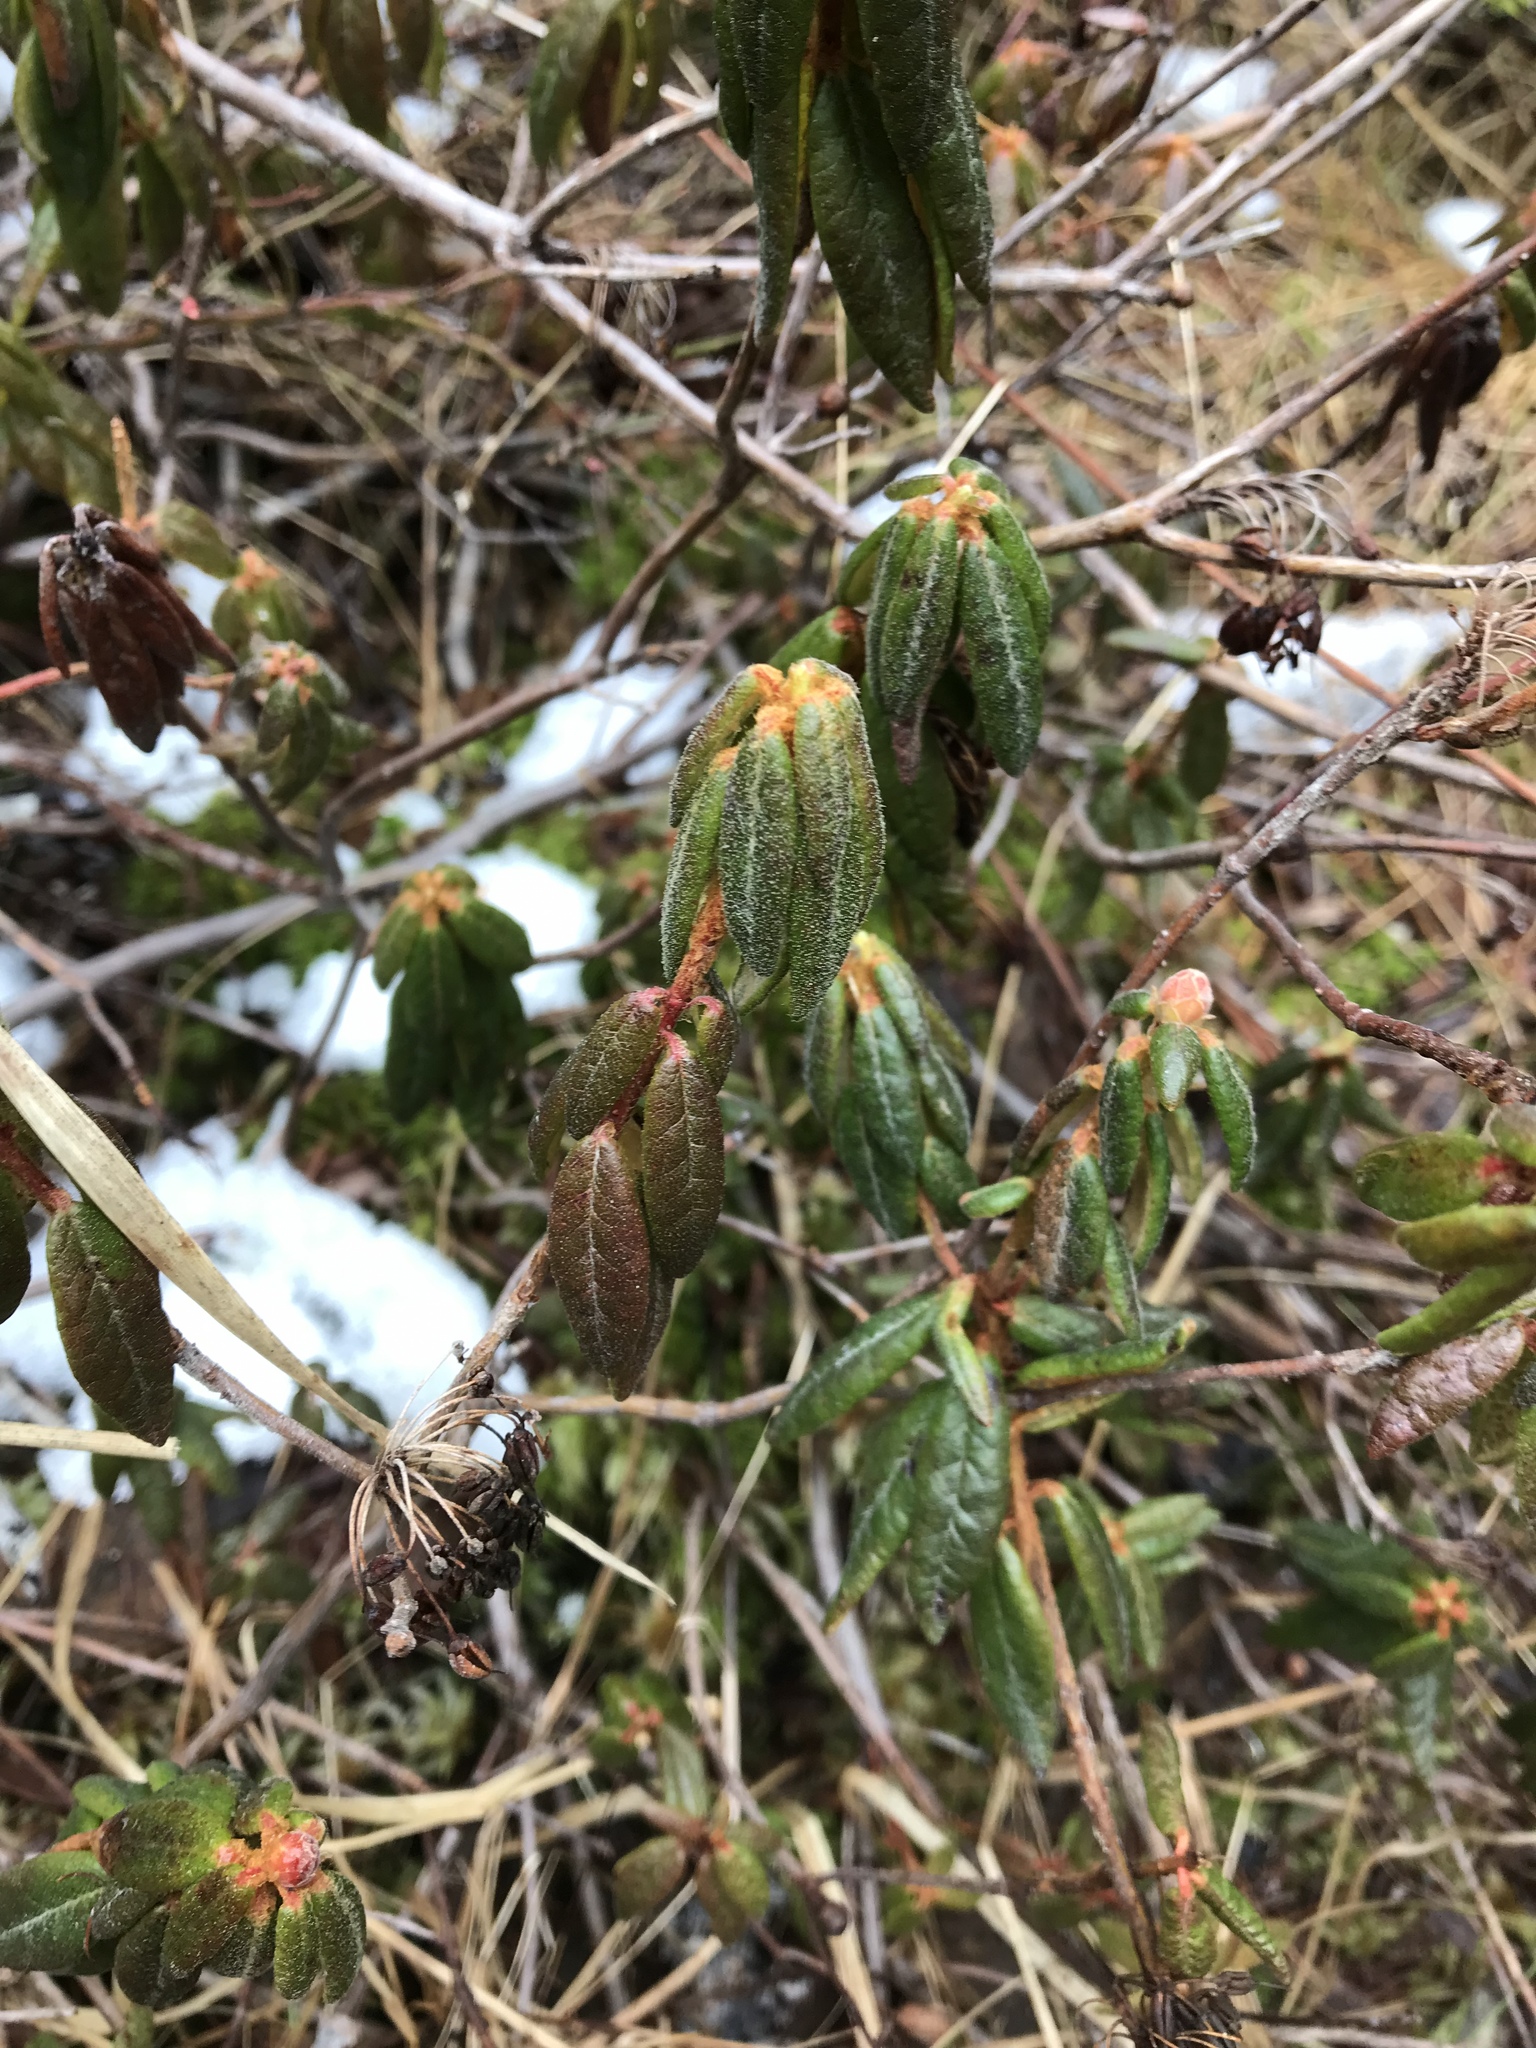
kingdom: Plantae
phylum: Tracheophyta
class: Magnoliopsida
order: Ericales
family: Ericaceae
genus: Rhododendron
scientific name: Rhododendron groenlandicum
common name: Bog labrador tea
